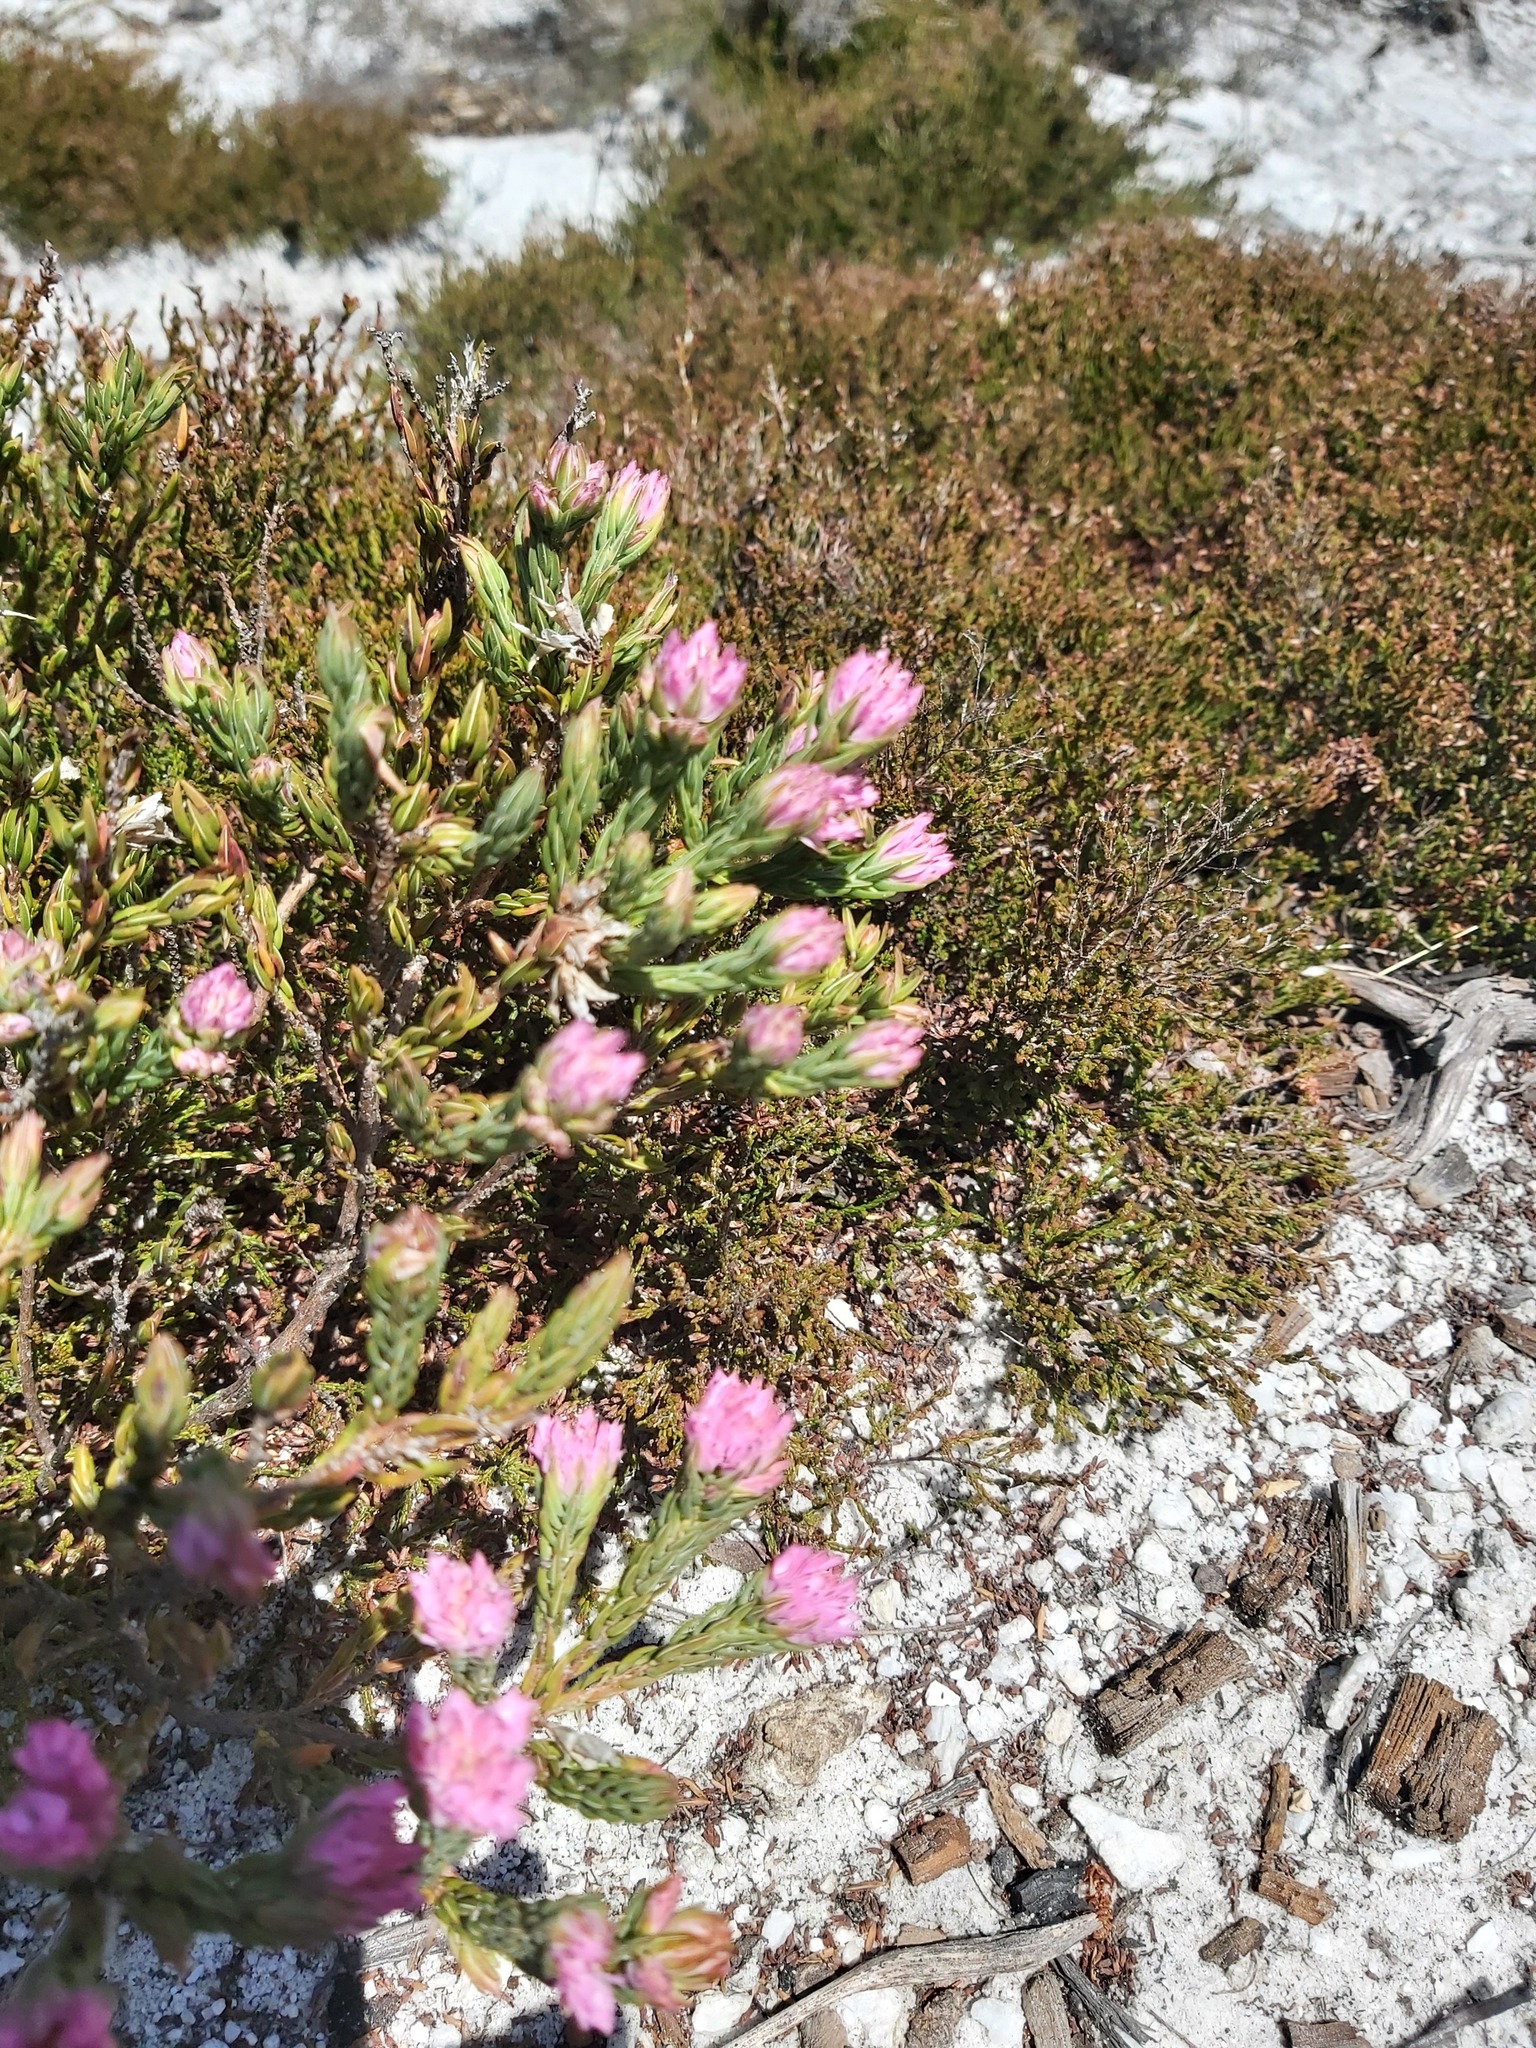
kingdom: Plantae
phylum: Tracheophyta
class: Magnoliopsida
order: Ericales
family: Ericaceae
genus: Erica
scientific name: Erica corifolia
